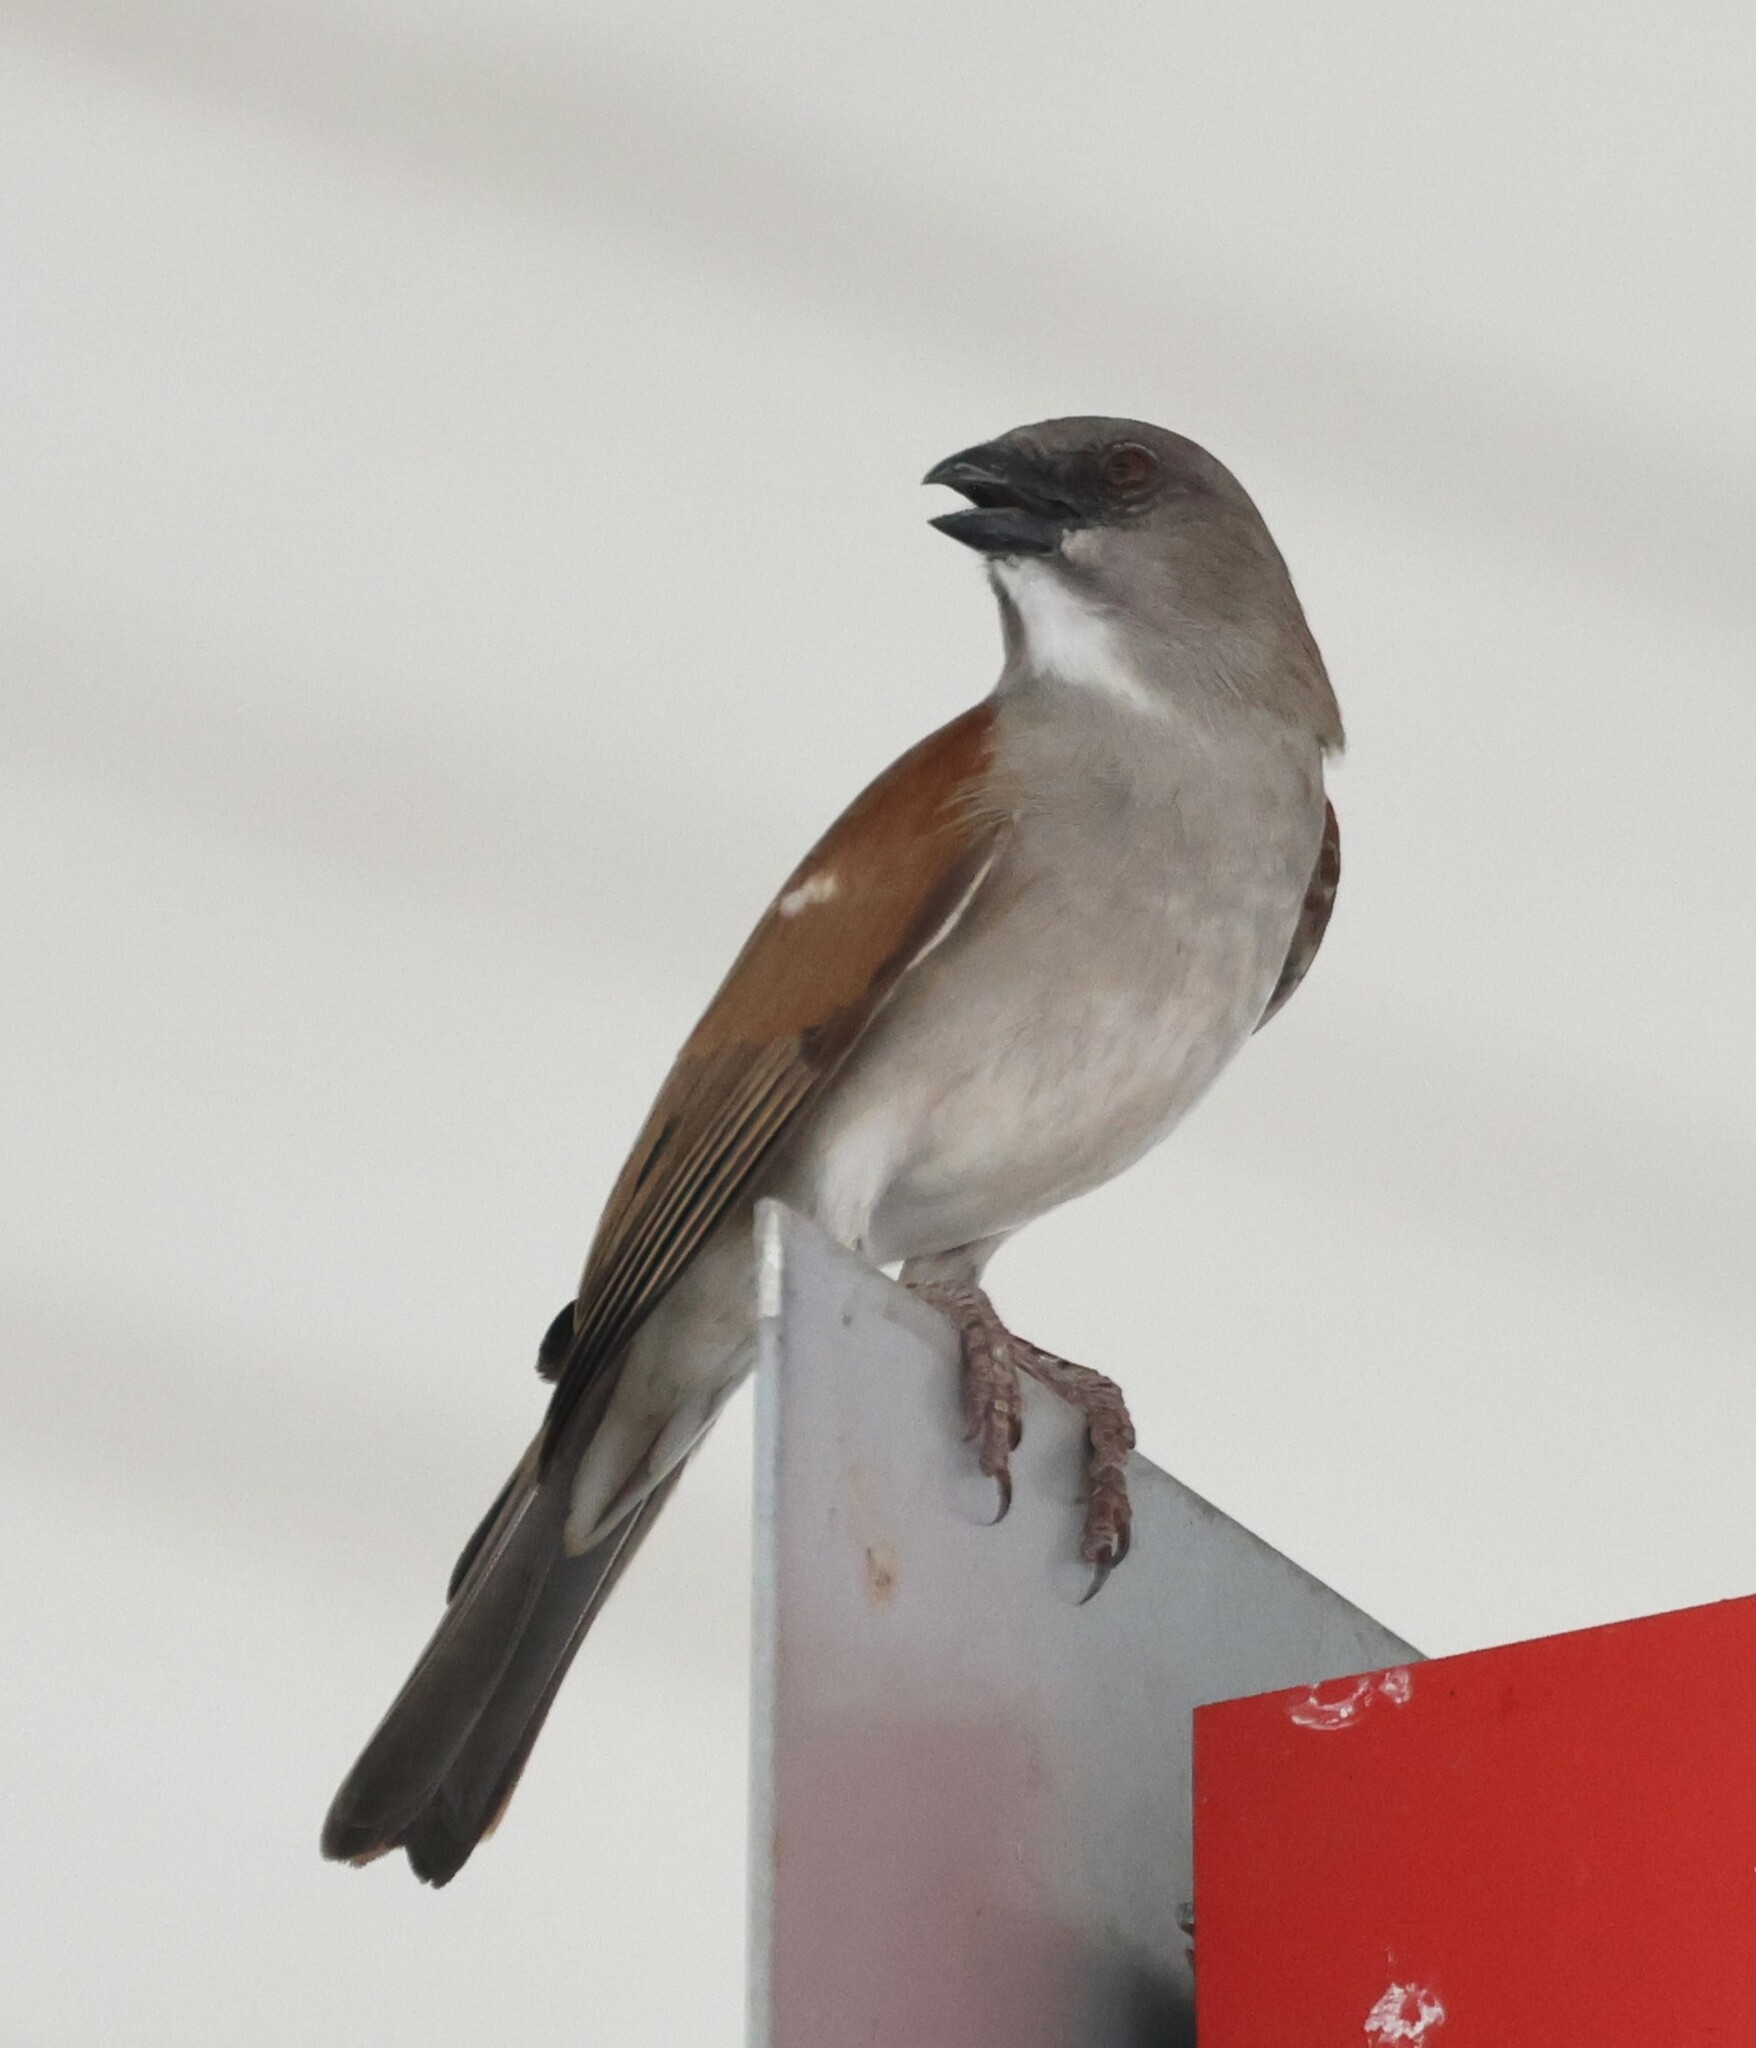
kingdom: Animalia
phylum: Chordata
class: Aves
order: Passeriformes
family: Passeridae
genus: Passer
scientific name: Passer griseus
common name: Northern grey-headed sparrow
